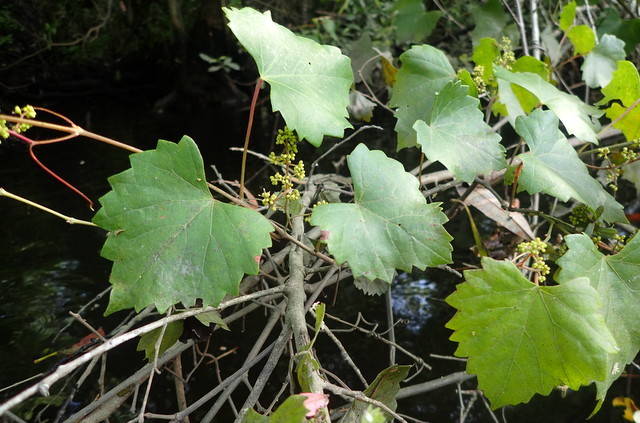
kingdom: Plantae
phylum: Tracheophyta
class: Magnoliopsida
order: Vitales
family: Vitaceae
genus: Vitis
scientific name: Vitis rotundifolia
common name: Muscadine grape
